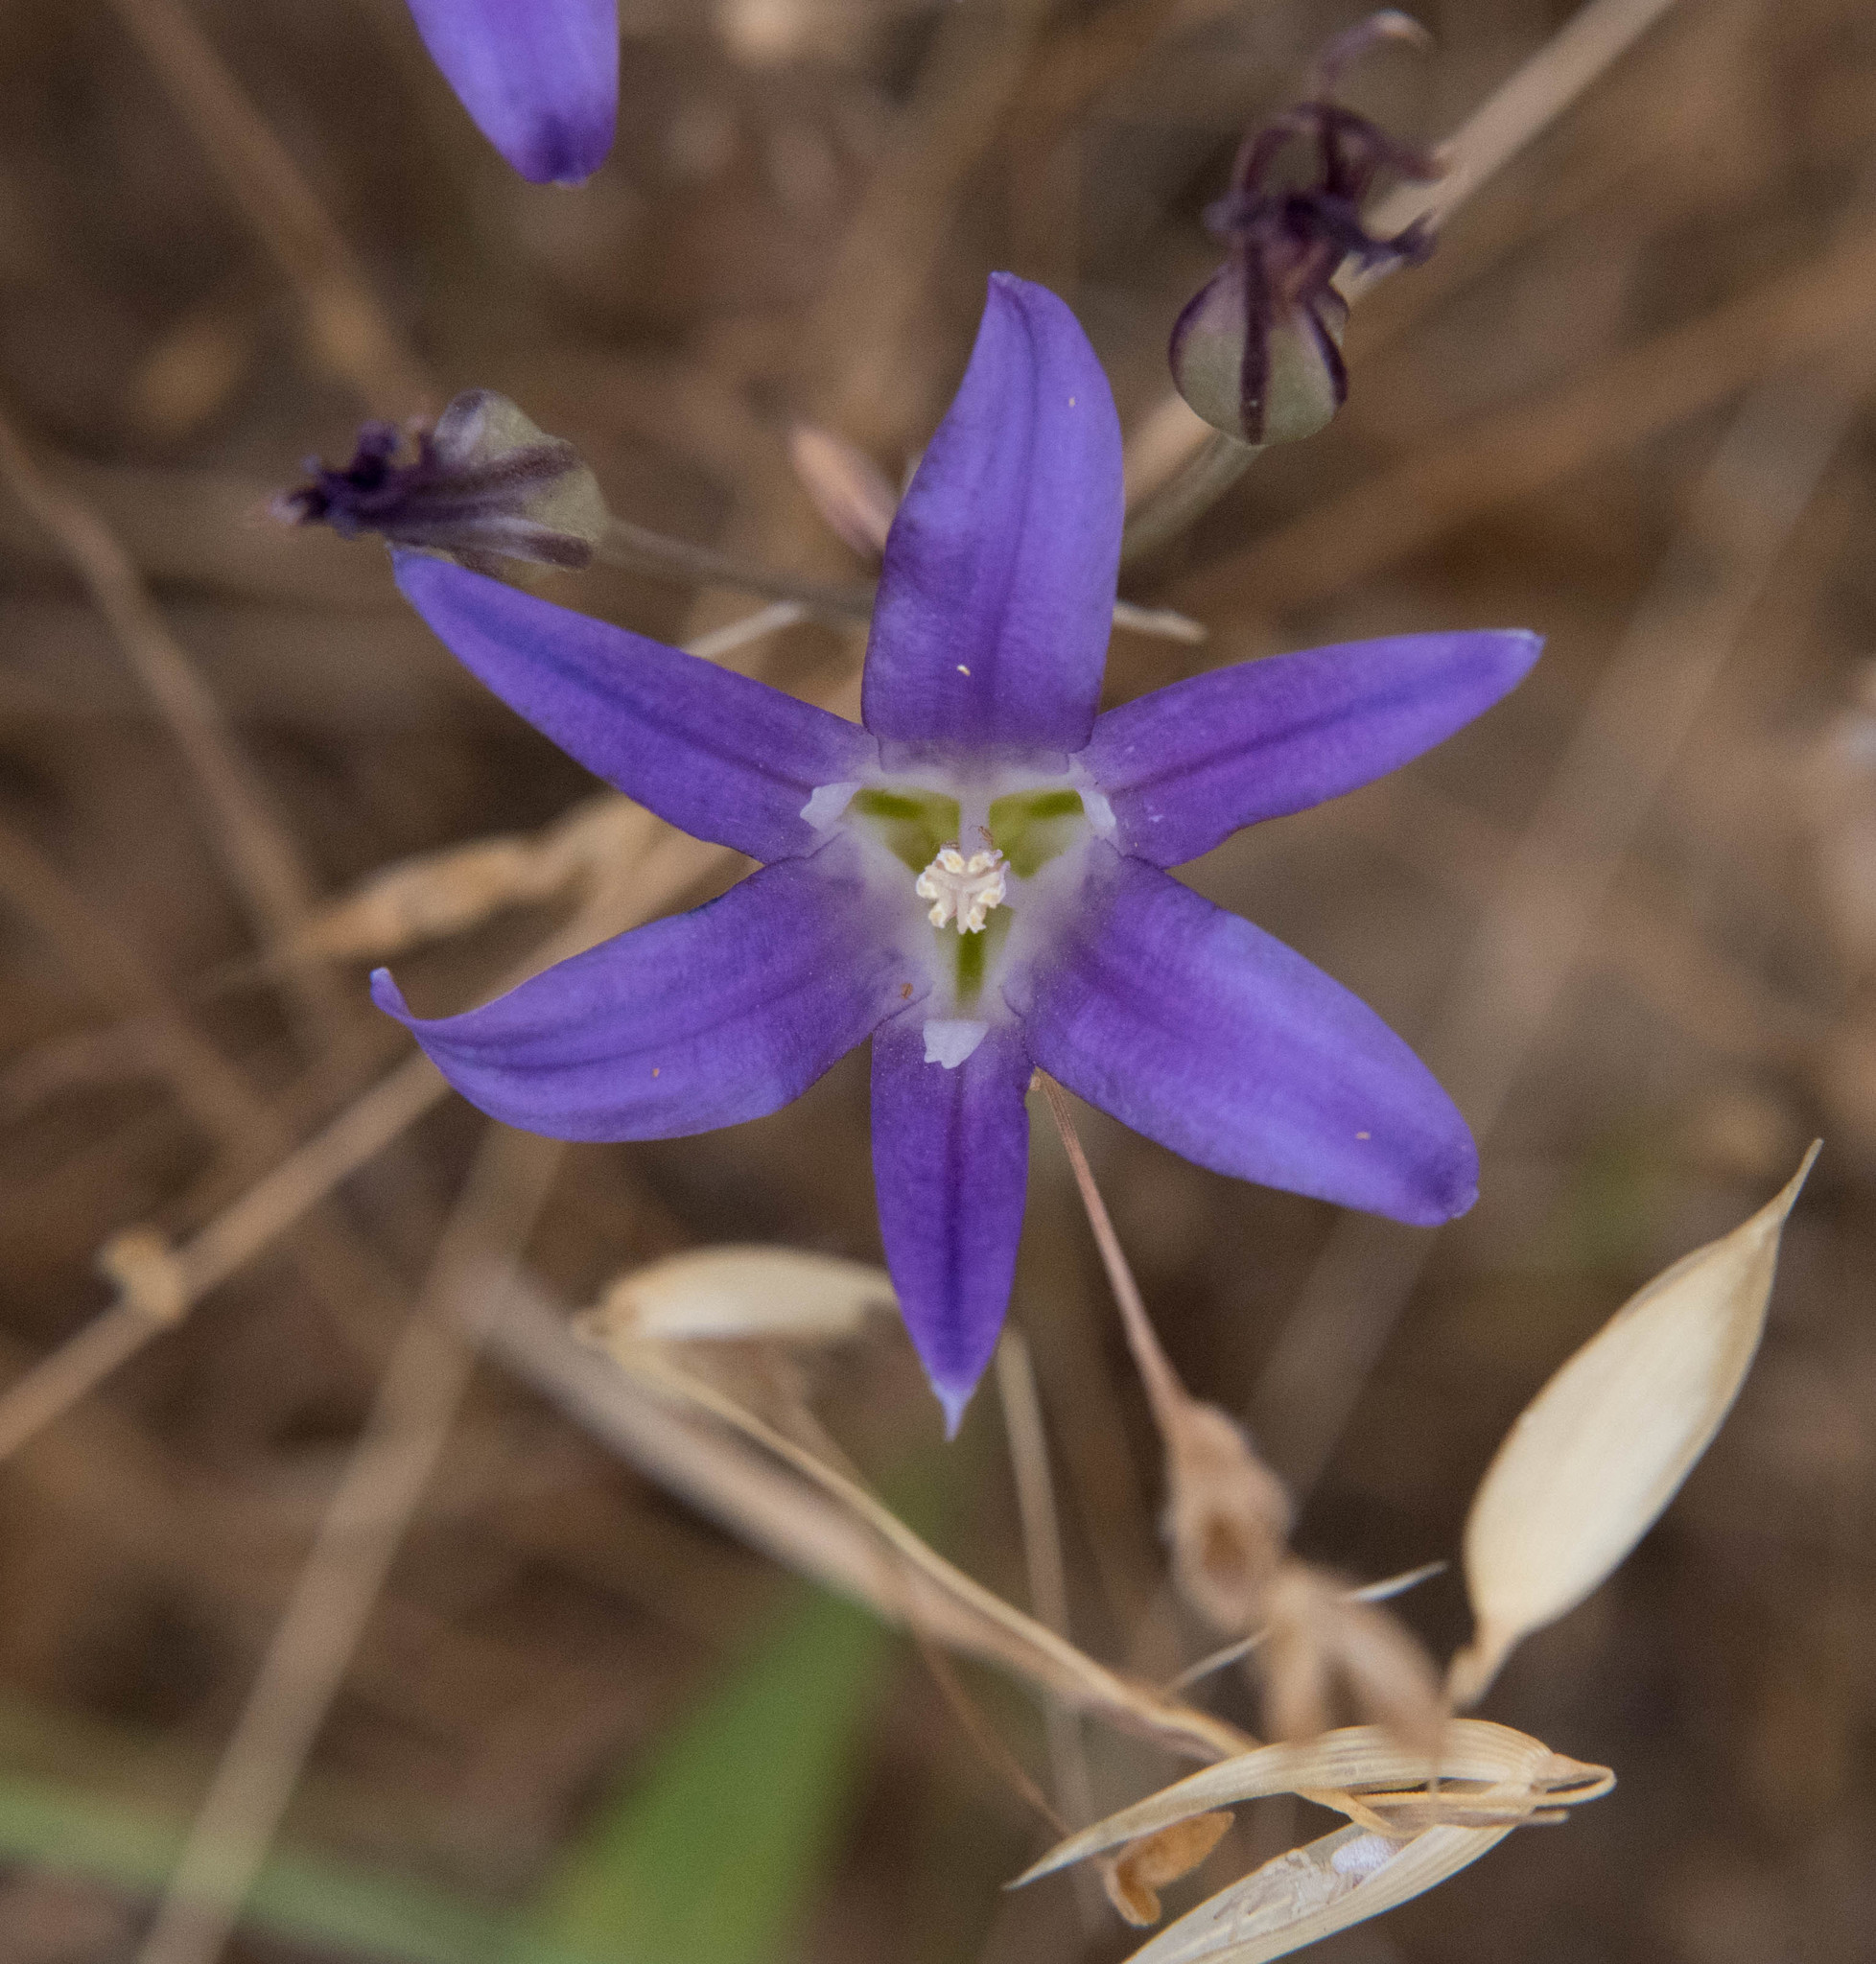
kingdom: Plantae
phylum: Tracheophyta
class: Liliopsida
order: Asparagales
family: Asparagaceae
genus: Brodiaea
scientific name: Brodiaea elegans
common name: Elegant cluster-lily
